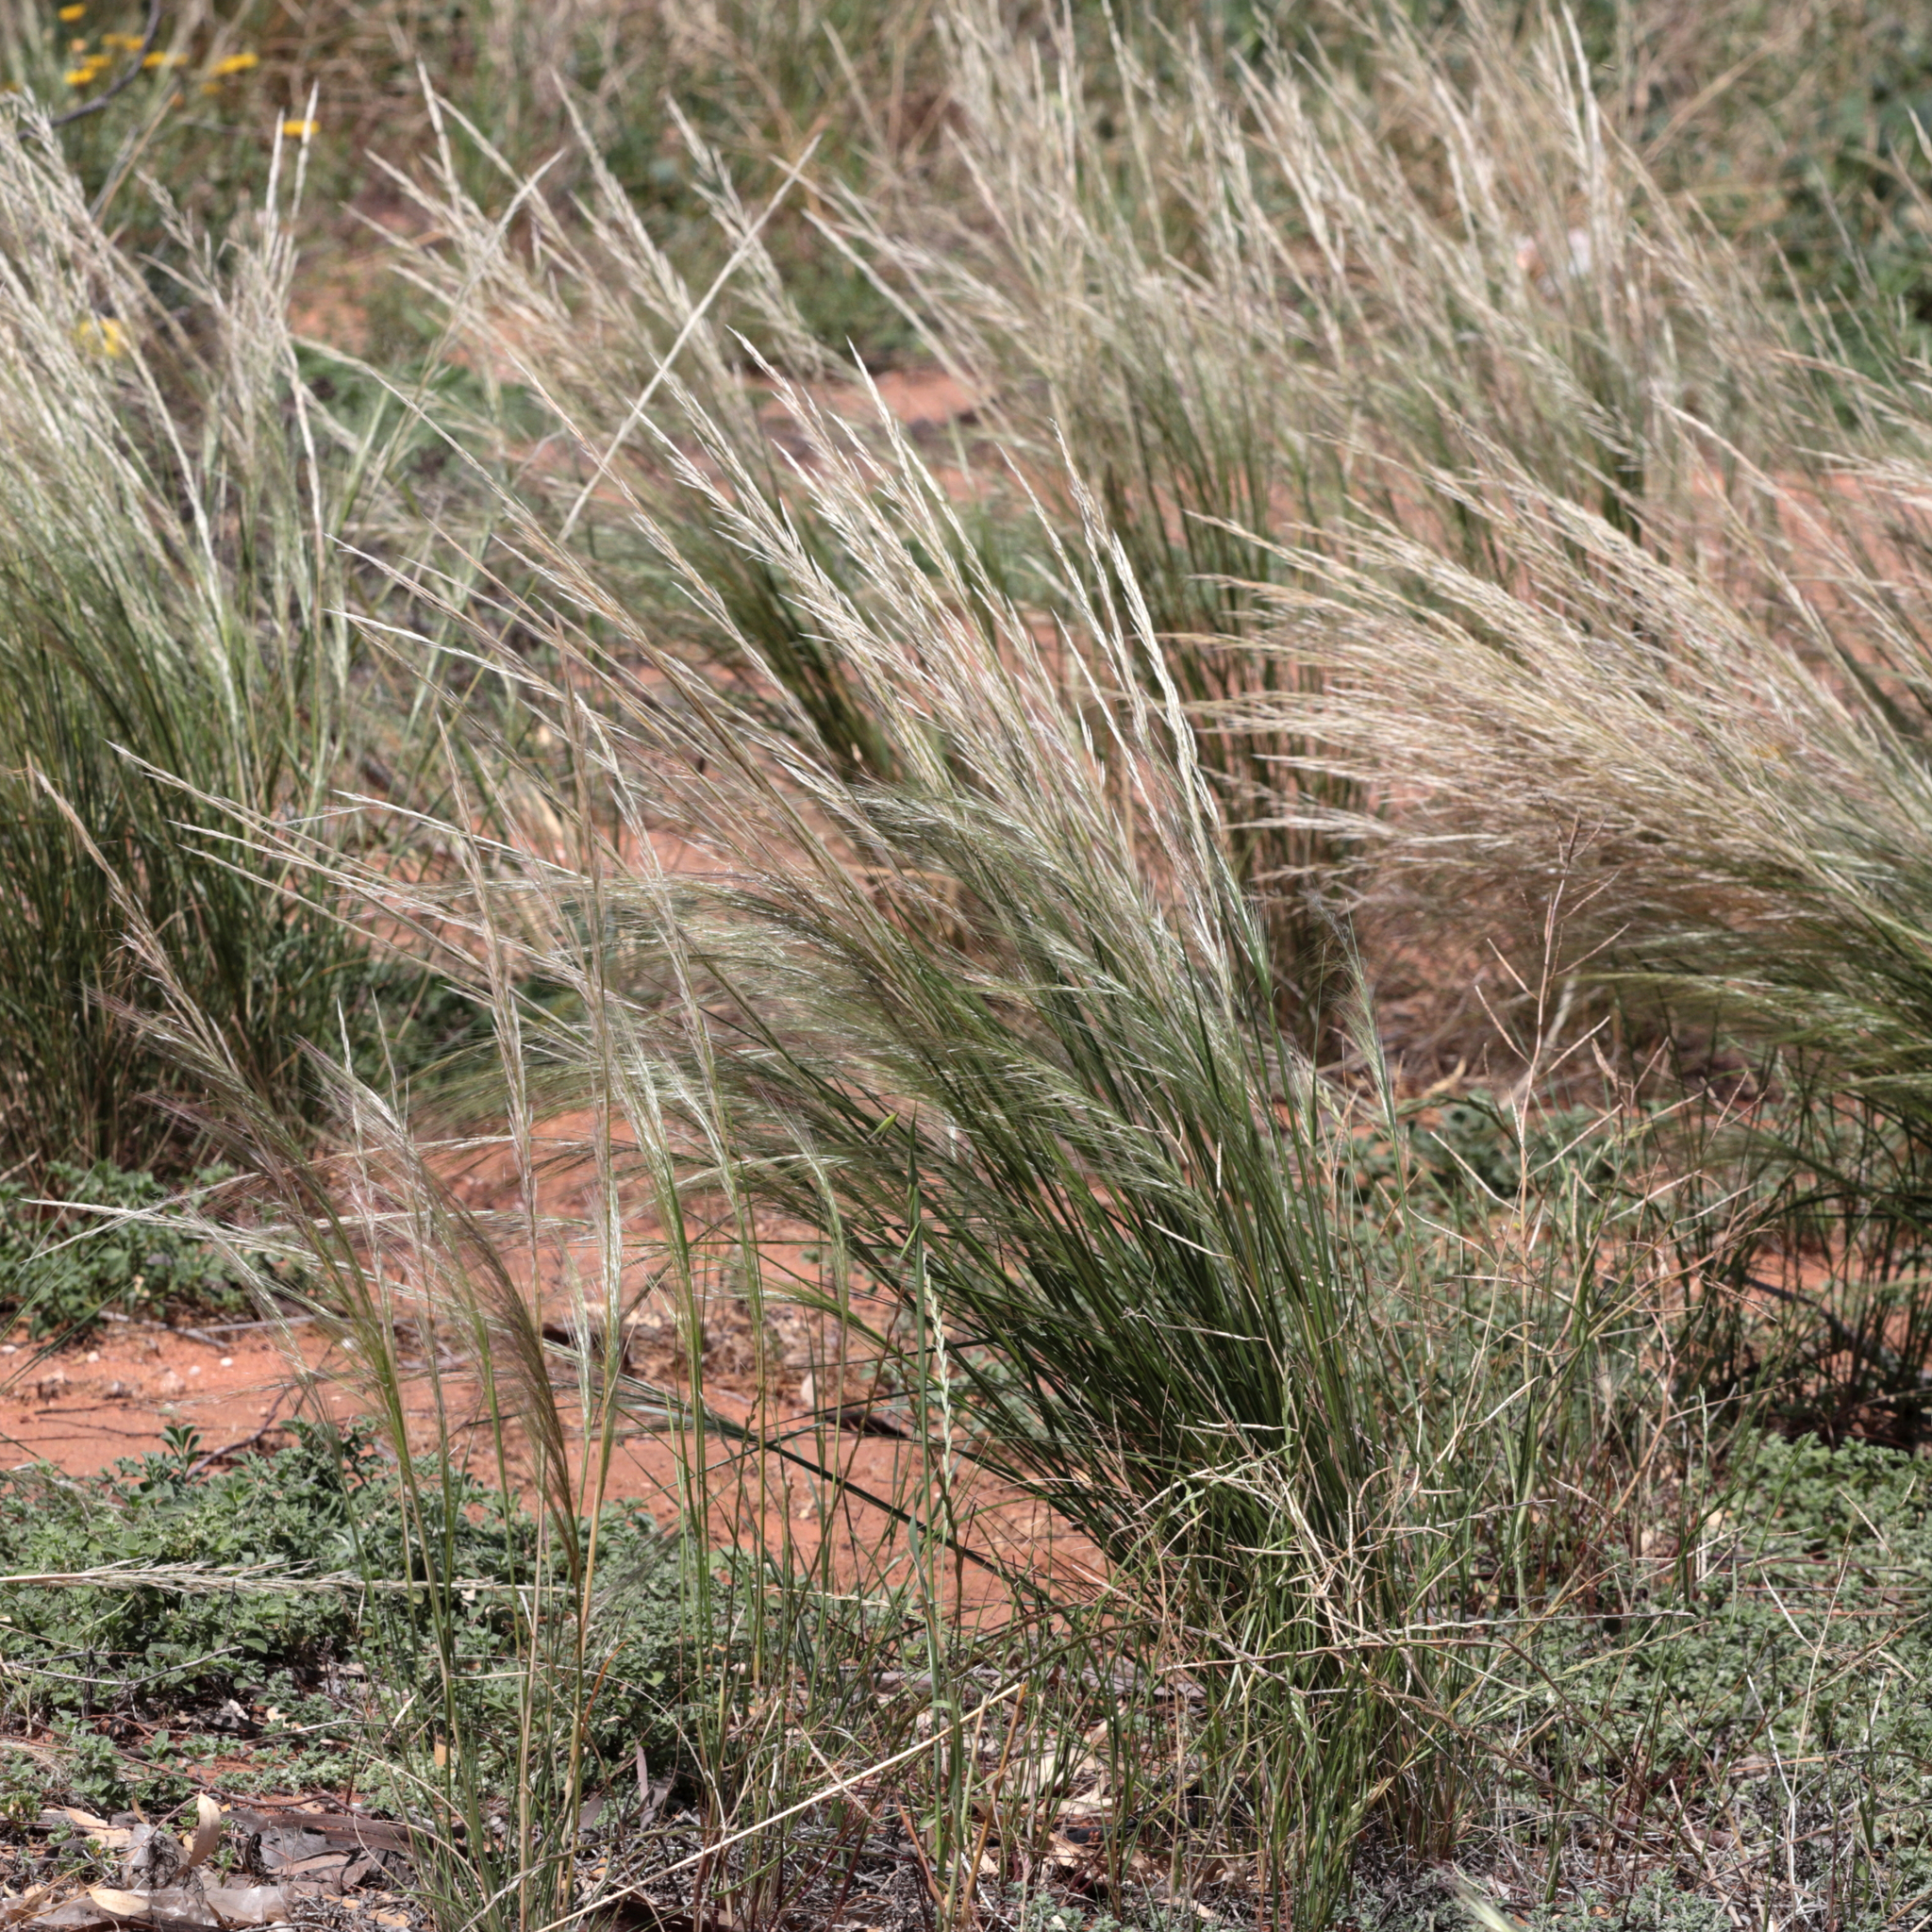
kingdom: Plantae
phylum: Tracheophyta
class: Liliopsida
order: Poales
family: Poaceae
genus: Austrostipa
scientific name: Austrostipa nitida
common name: Balcarra grass
